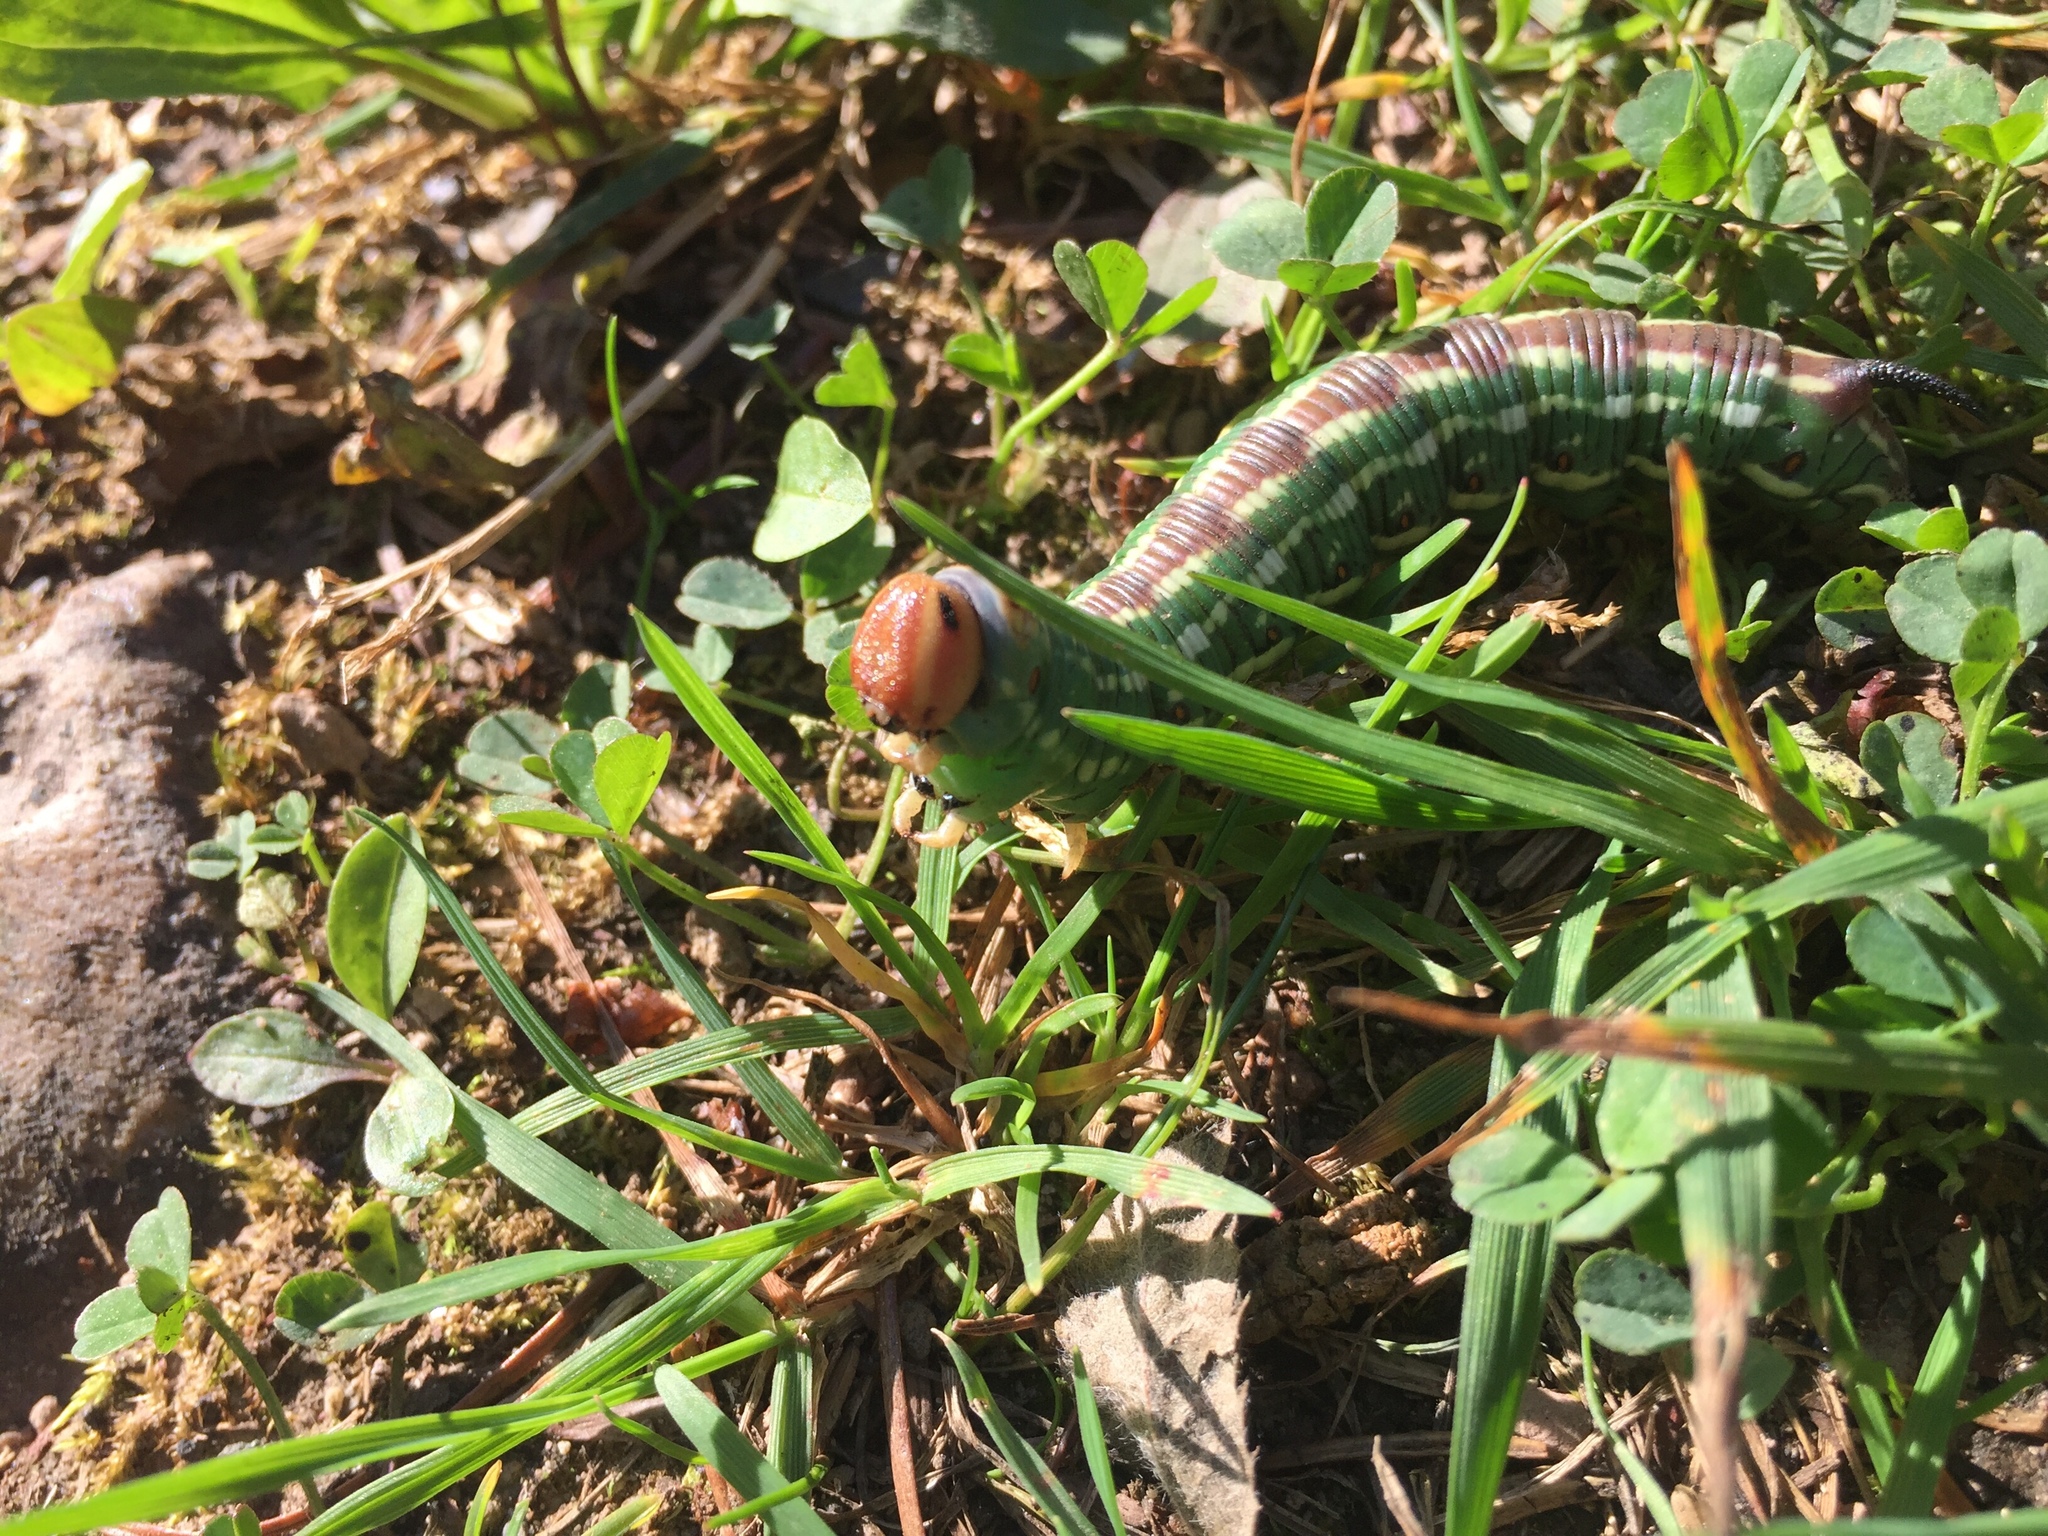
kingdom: Animalia
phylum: Arthropoda
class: Insecta
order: Lepidoptera
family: Sphingidae
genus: Sphinx
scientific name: Sphinx pinastri
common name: Pine hawk-moth
